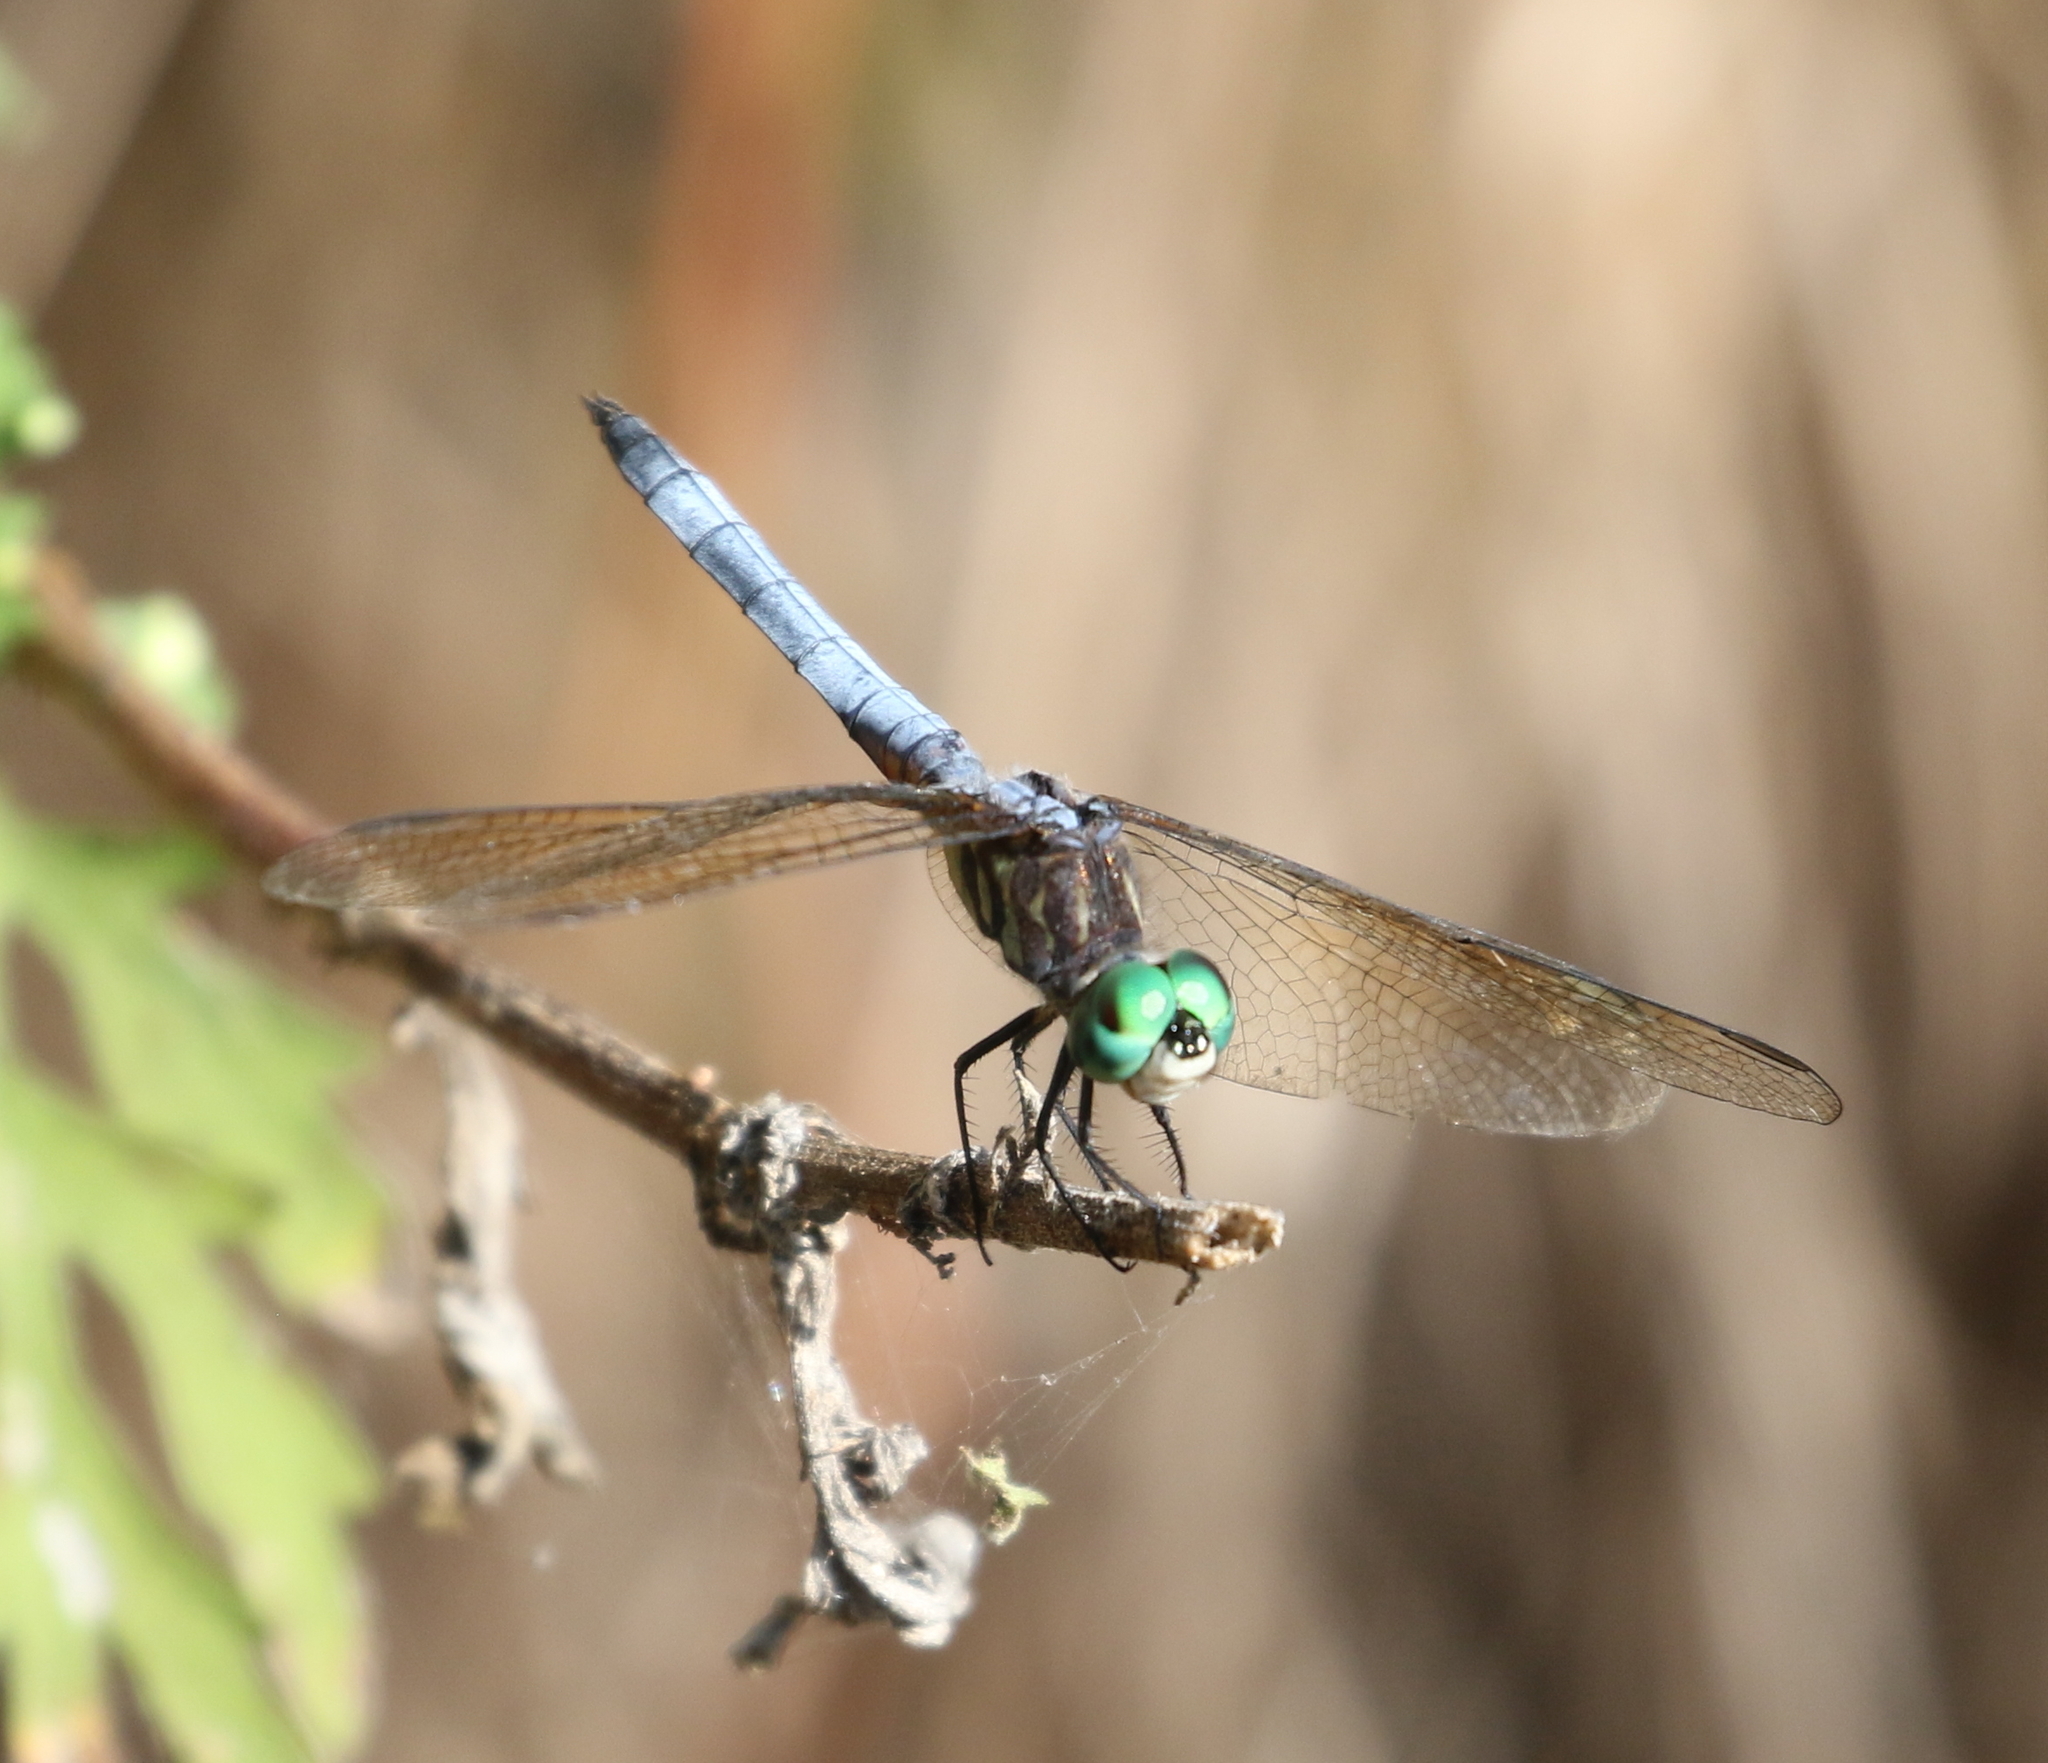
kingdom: Animalia
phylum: Arthropoda
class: Insecta
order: Odonata
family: Libellulidae
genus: Pachydiplax
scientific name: Pachydiplax longipennis
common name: Blue dasher
